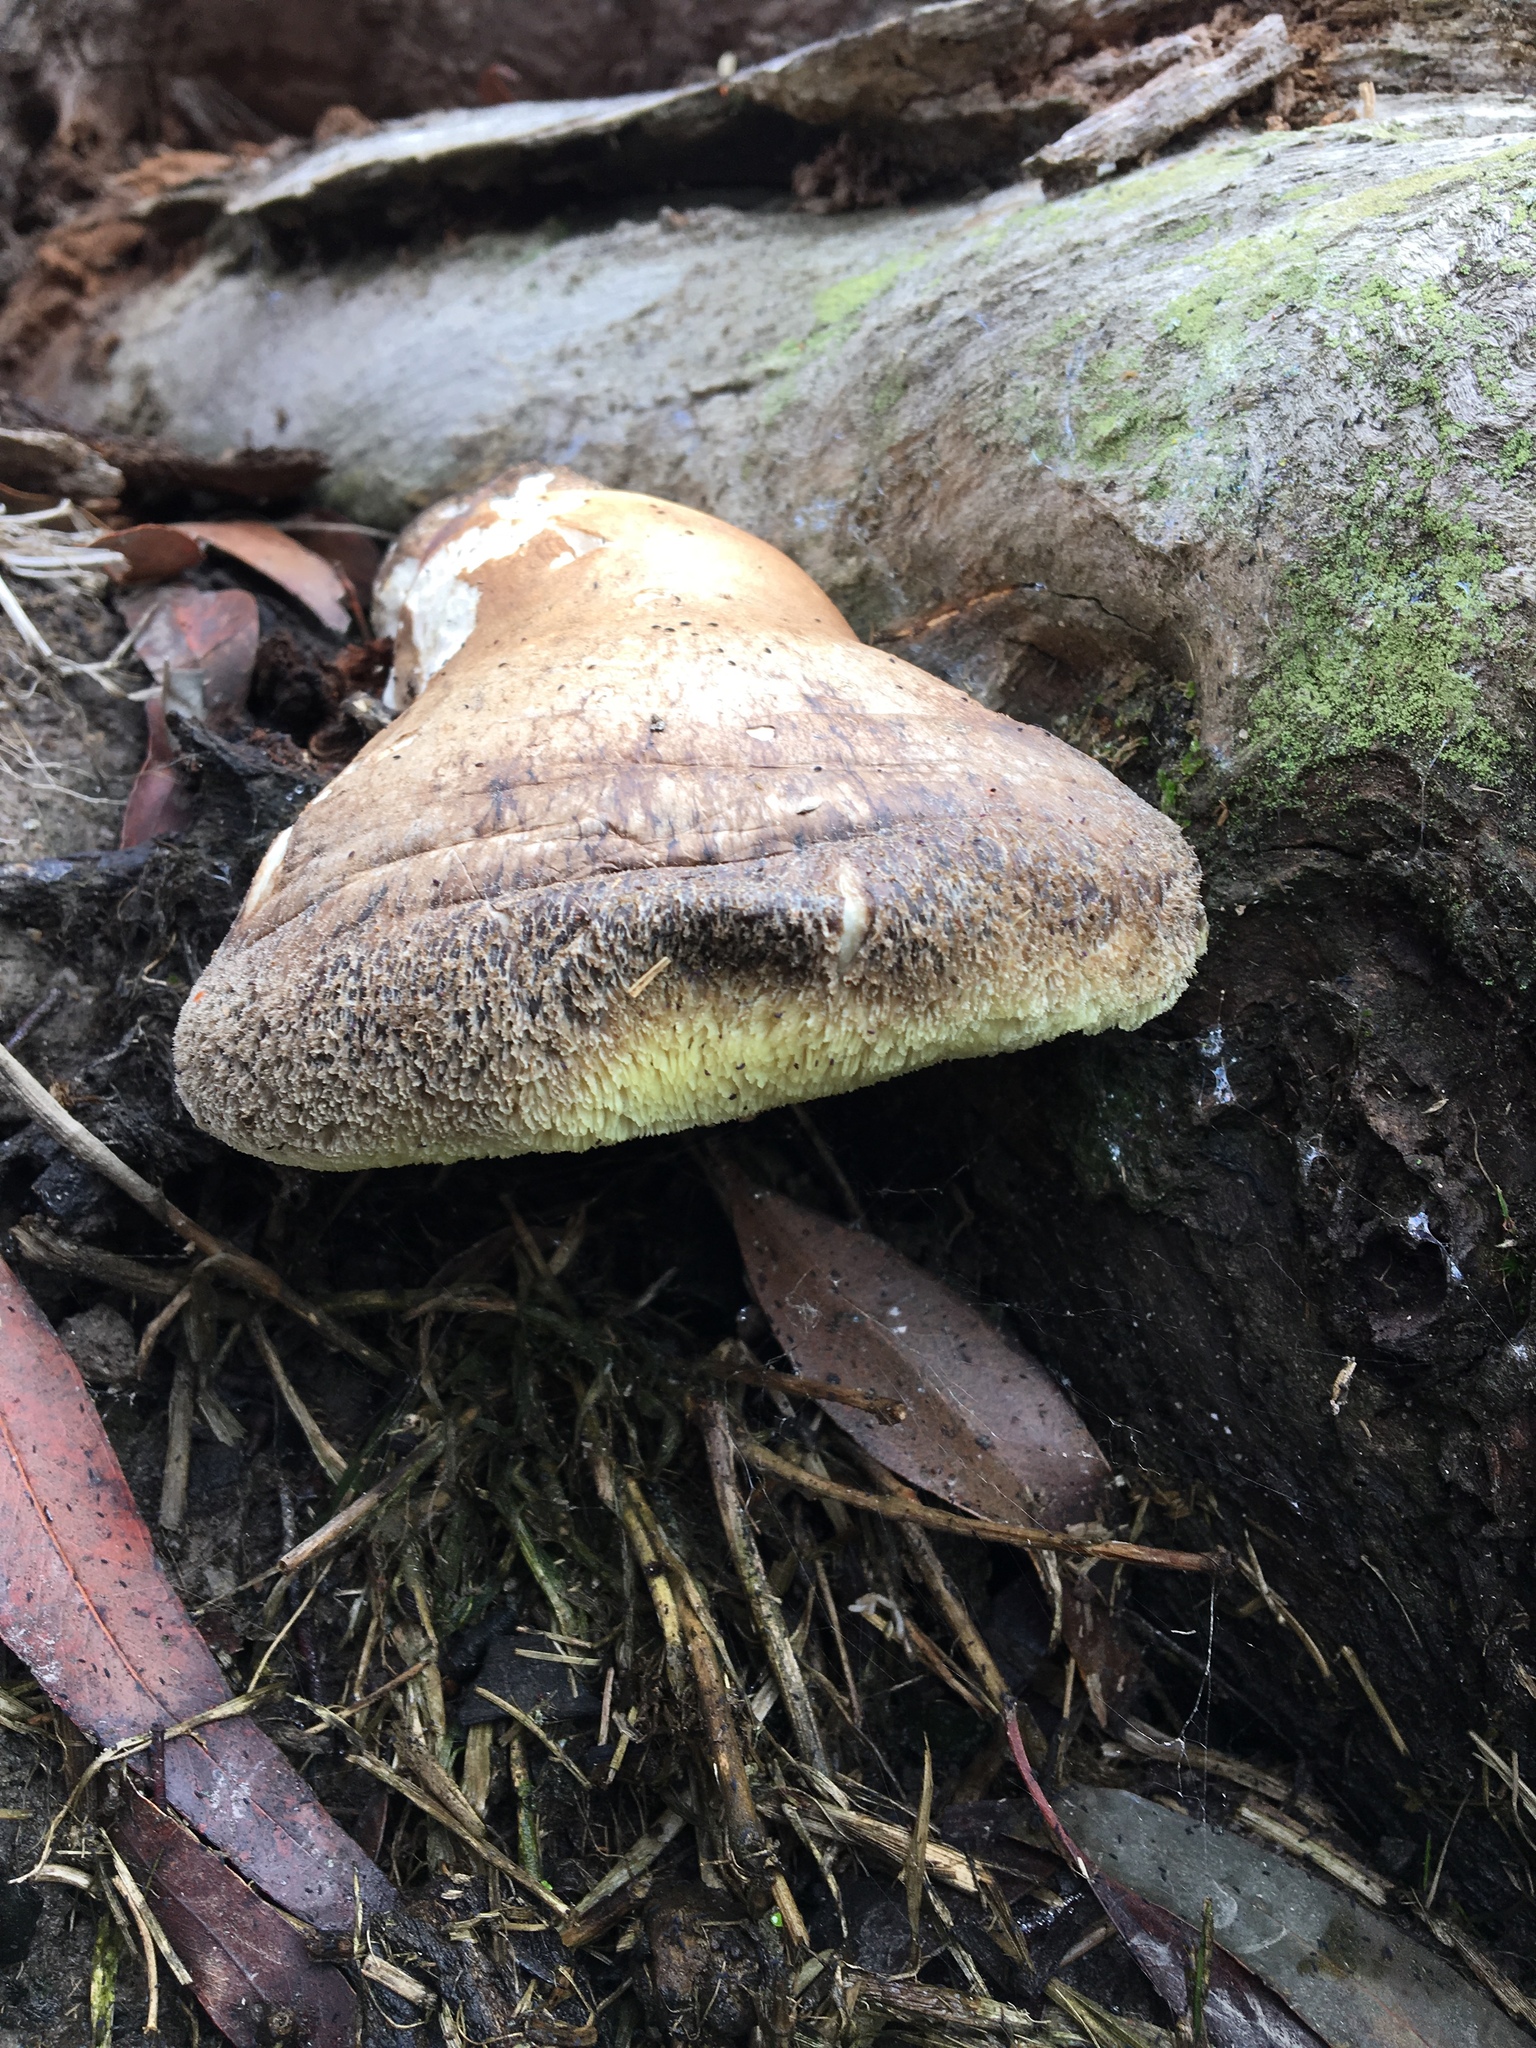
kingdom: Fungi
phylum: Basidiomycota
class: Agaricomycetes
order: Polyporales
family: Laetiporaceae
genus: Laetiporus
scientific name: Laetiporus portentosus
